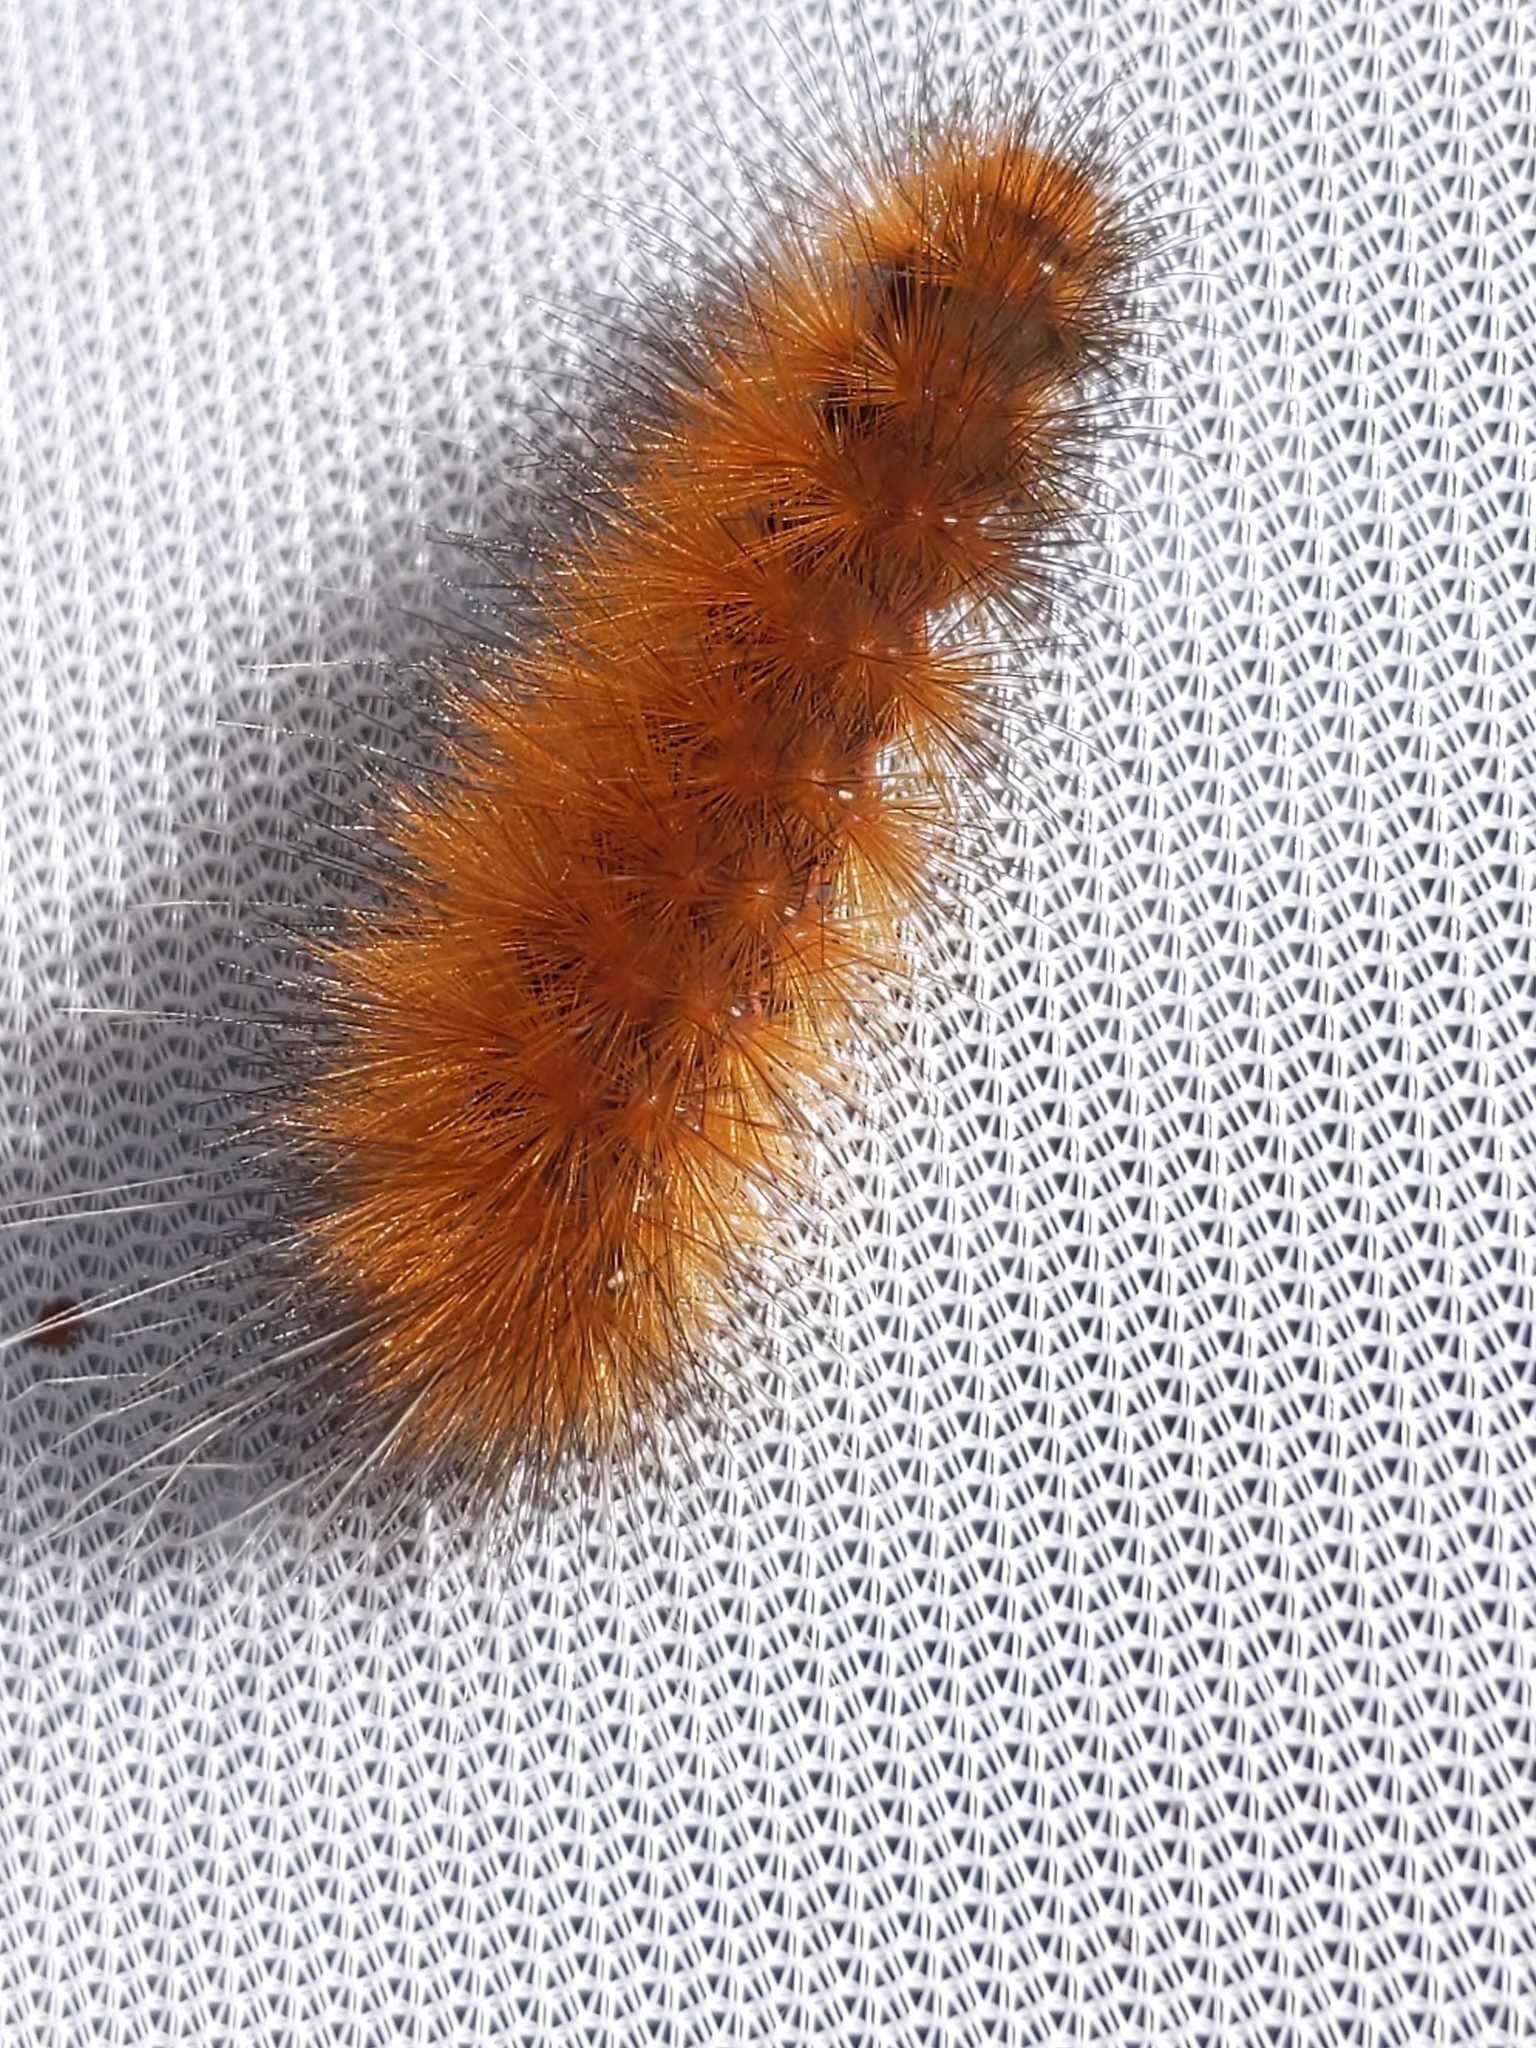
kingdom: Animalia
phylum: Arthropoda
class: Insecta
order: Lepidoptera
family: Erebidae
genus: Spilosoma
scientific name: Spilosoma virginica
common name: Virginia tiger moth
